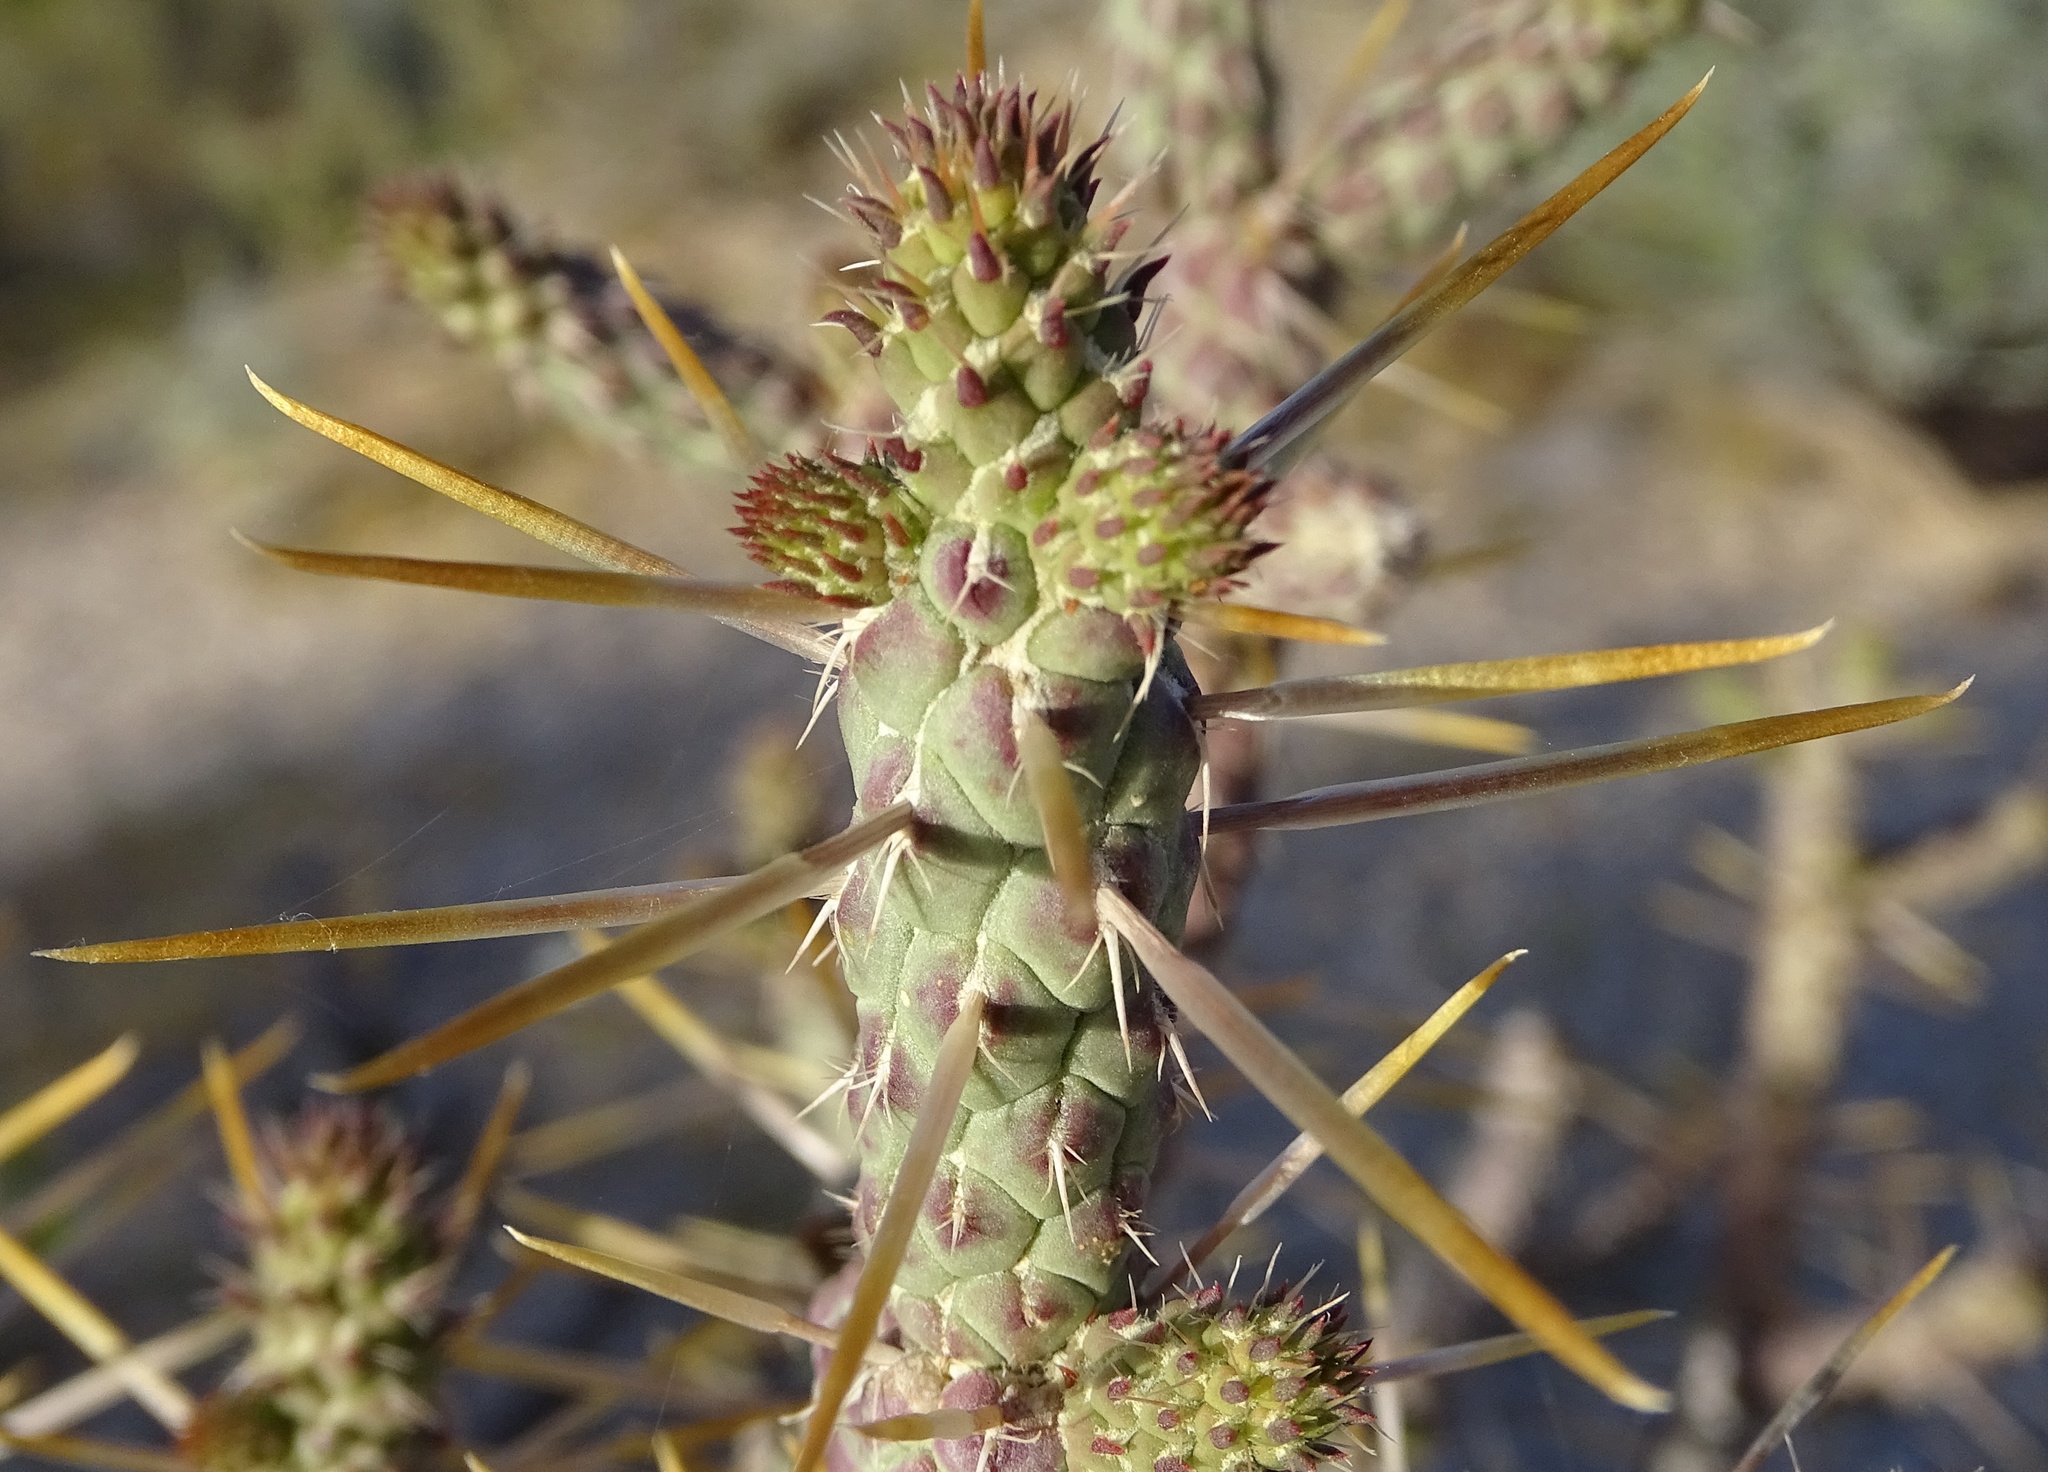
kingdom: Plantae
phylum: Tracheophyta
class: Magnoliopsida
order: Caryophyllales
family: Cactaceae
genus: Cylindropuntia
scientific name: Cylindropuntia ramosissima
